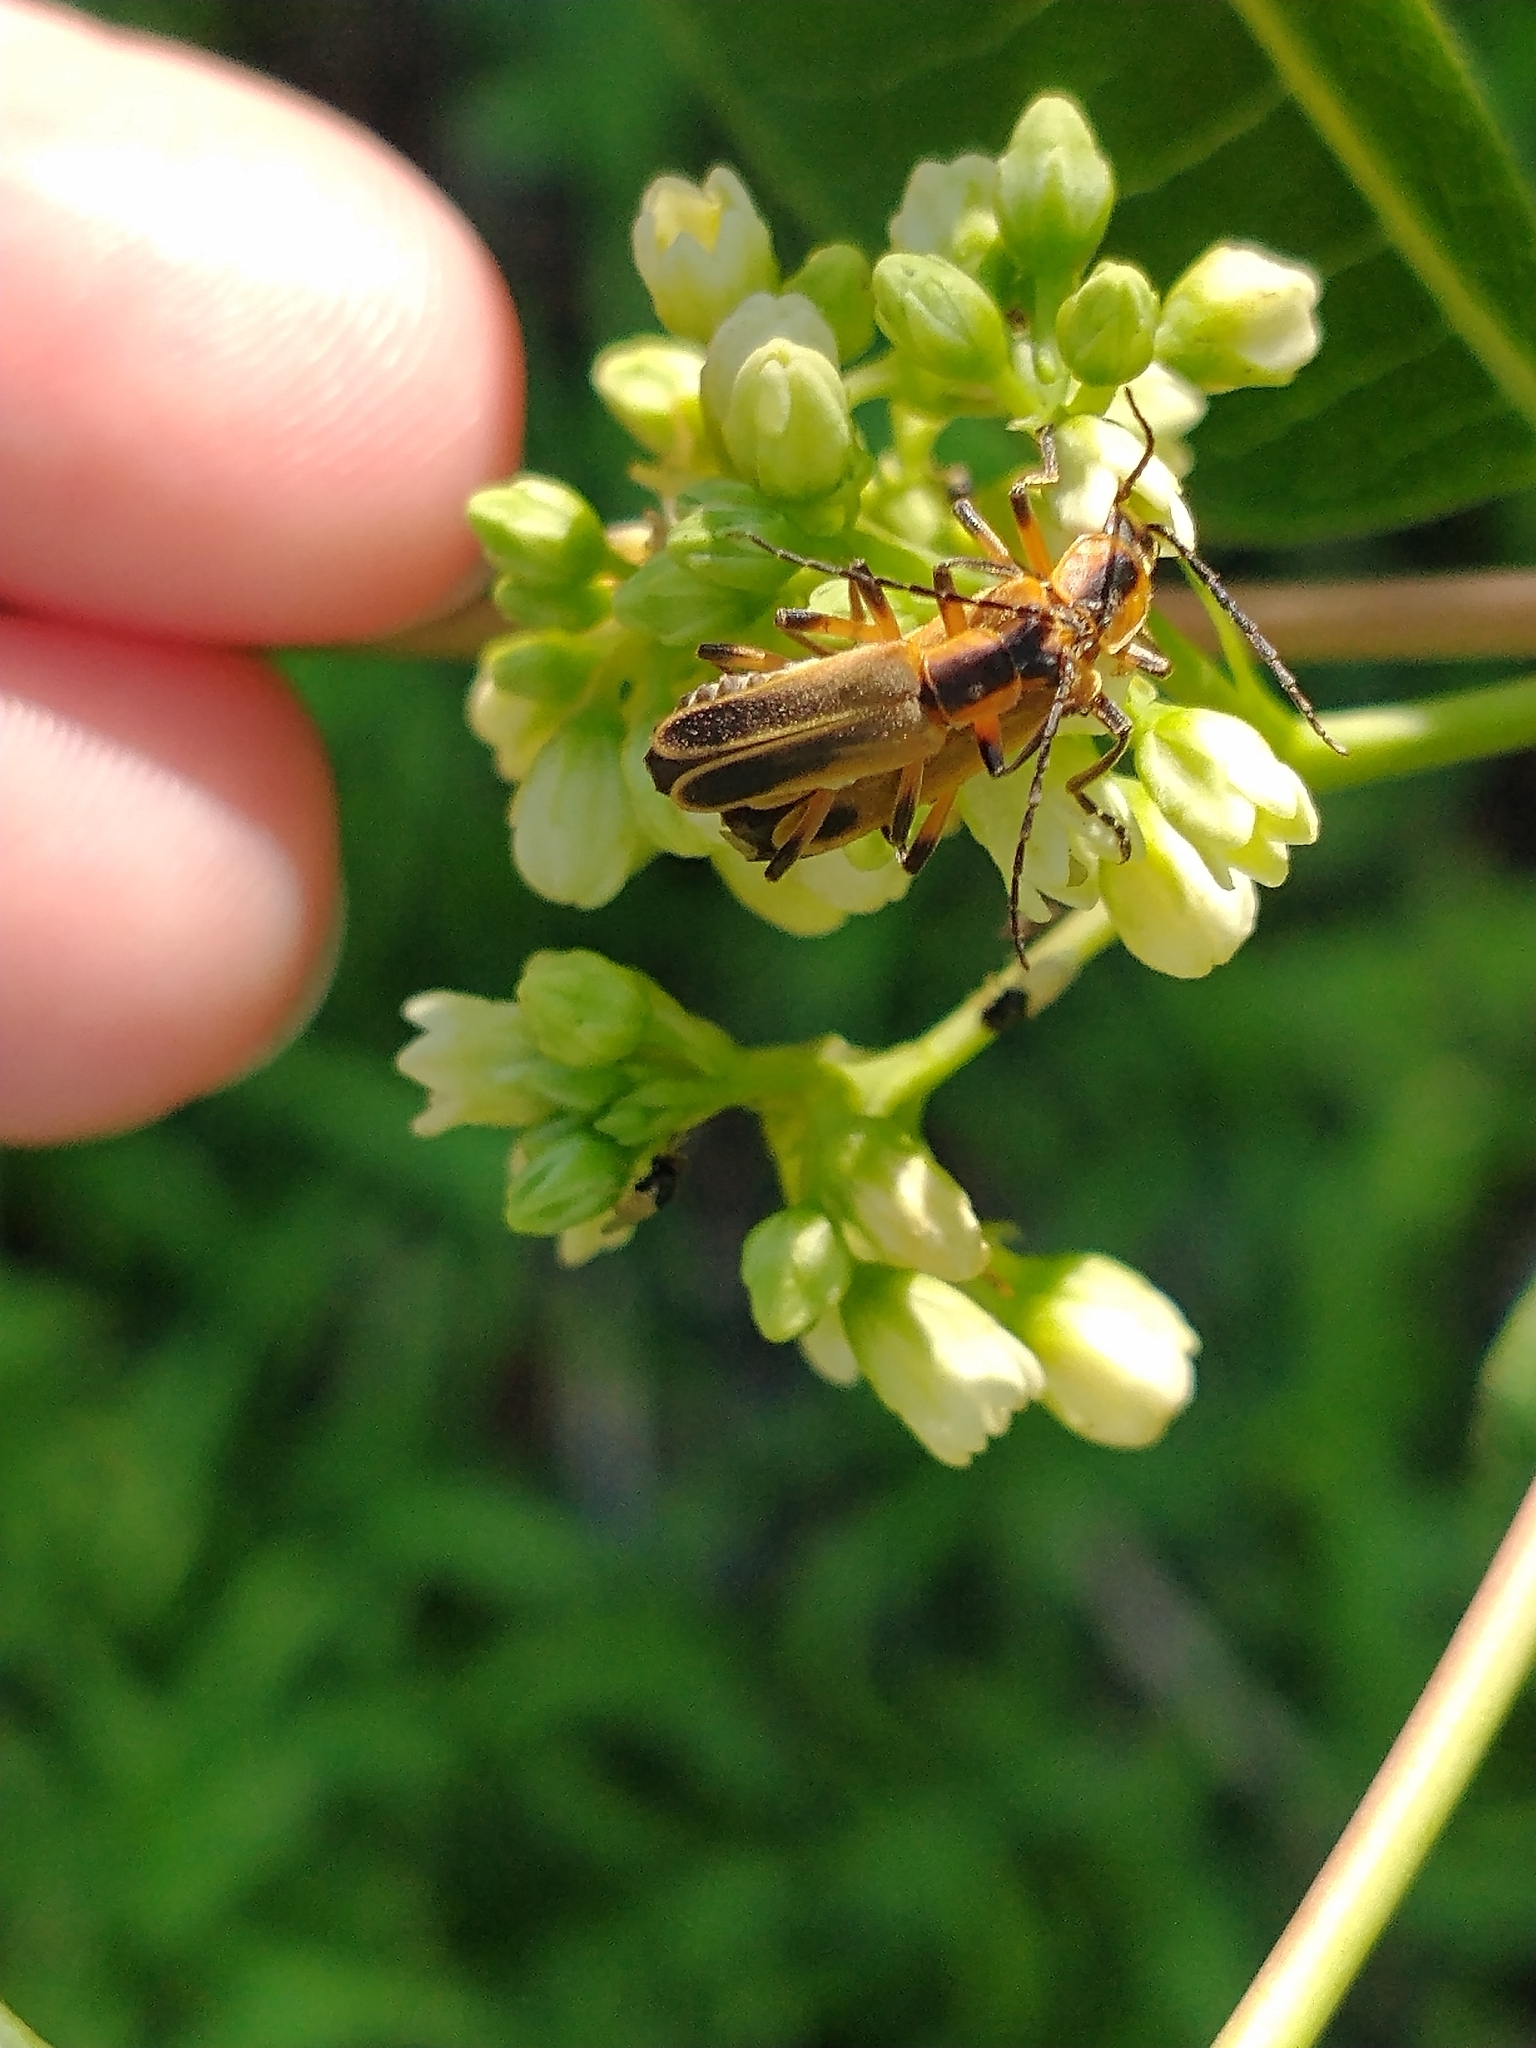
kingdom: Animalia
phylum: Arthropoda
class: Insecta
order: Coleoptera
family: Cantharidae
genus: Chauliognathus
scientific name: Chauliognathus marginatus
